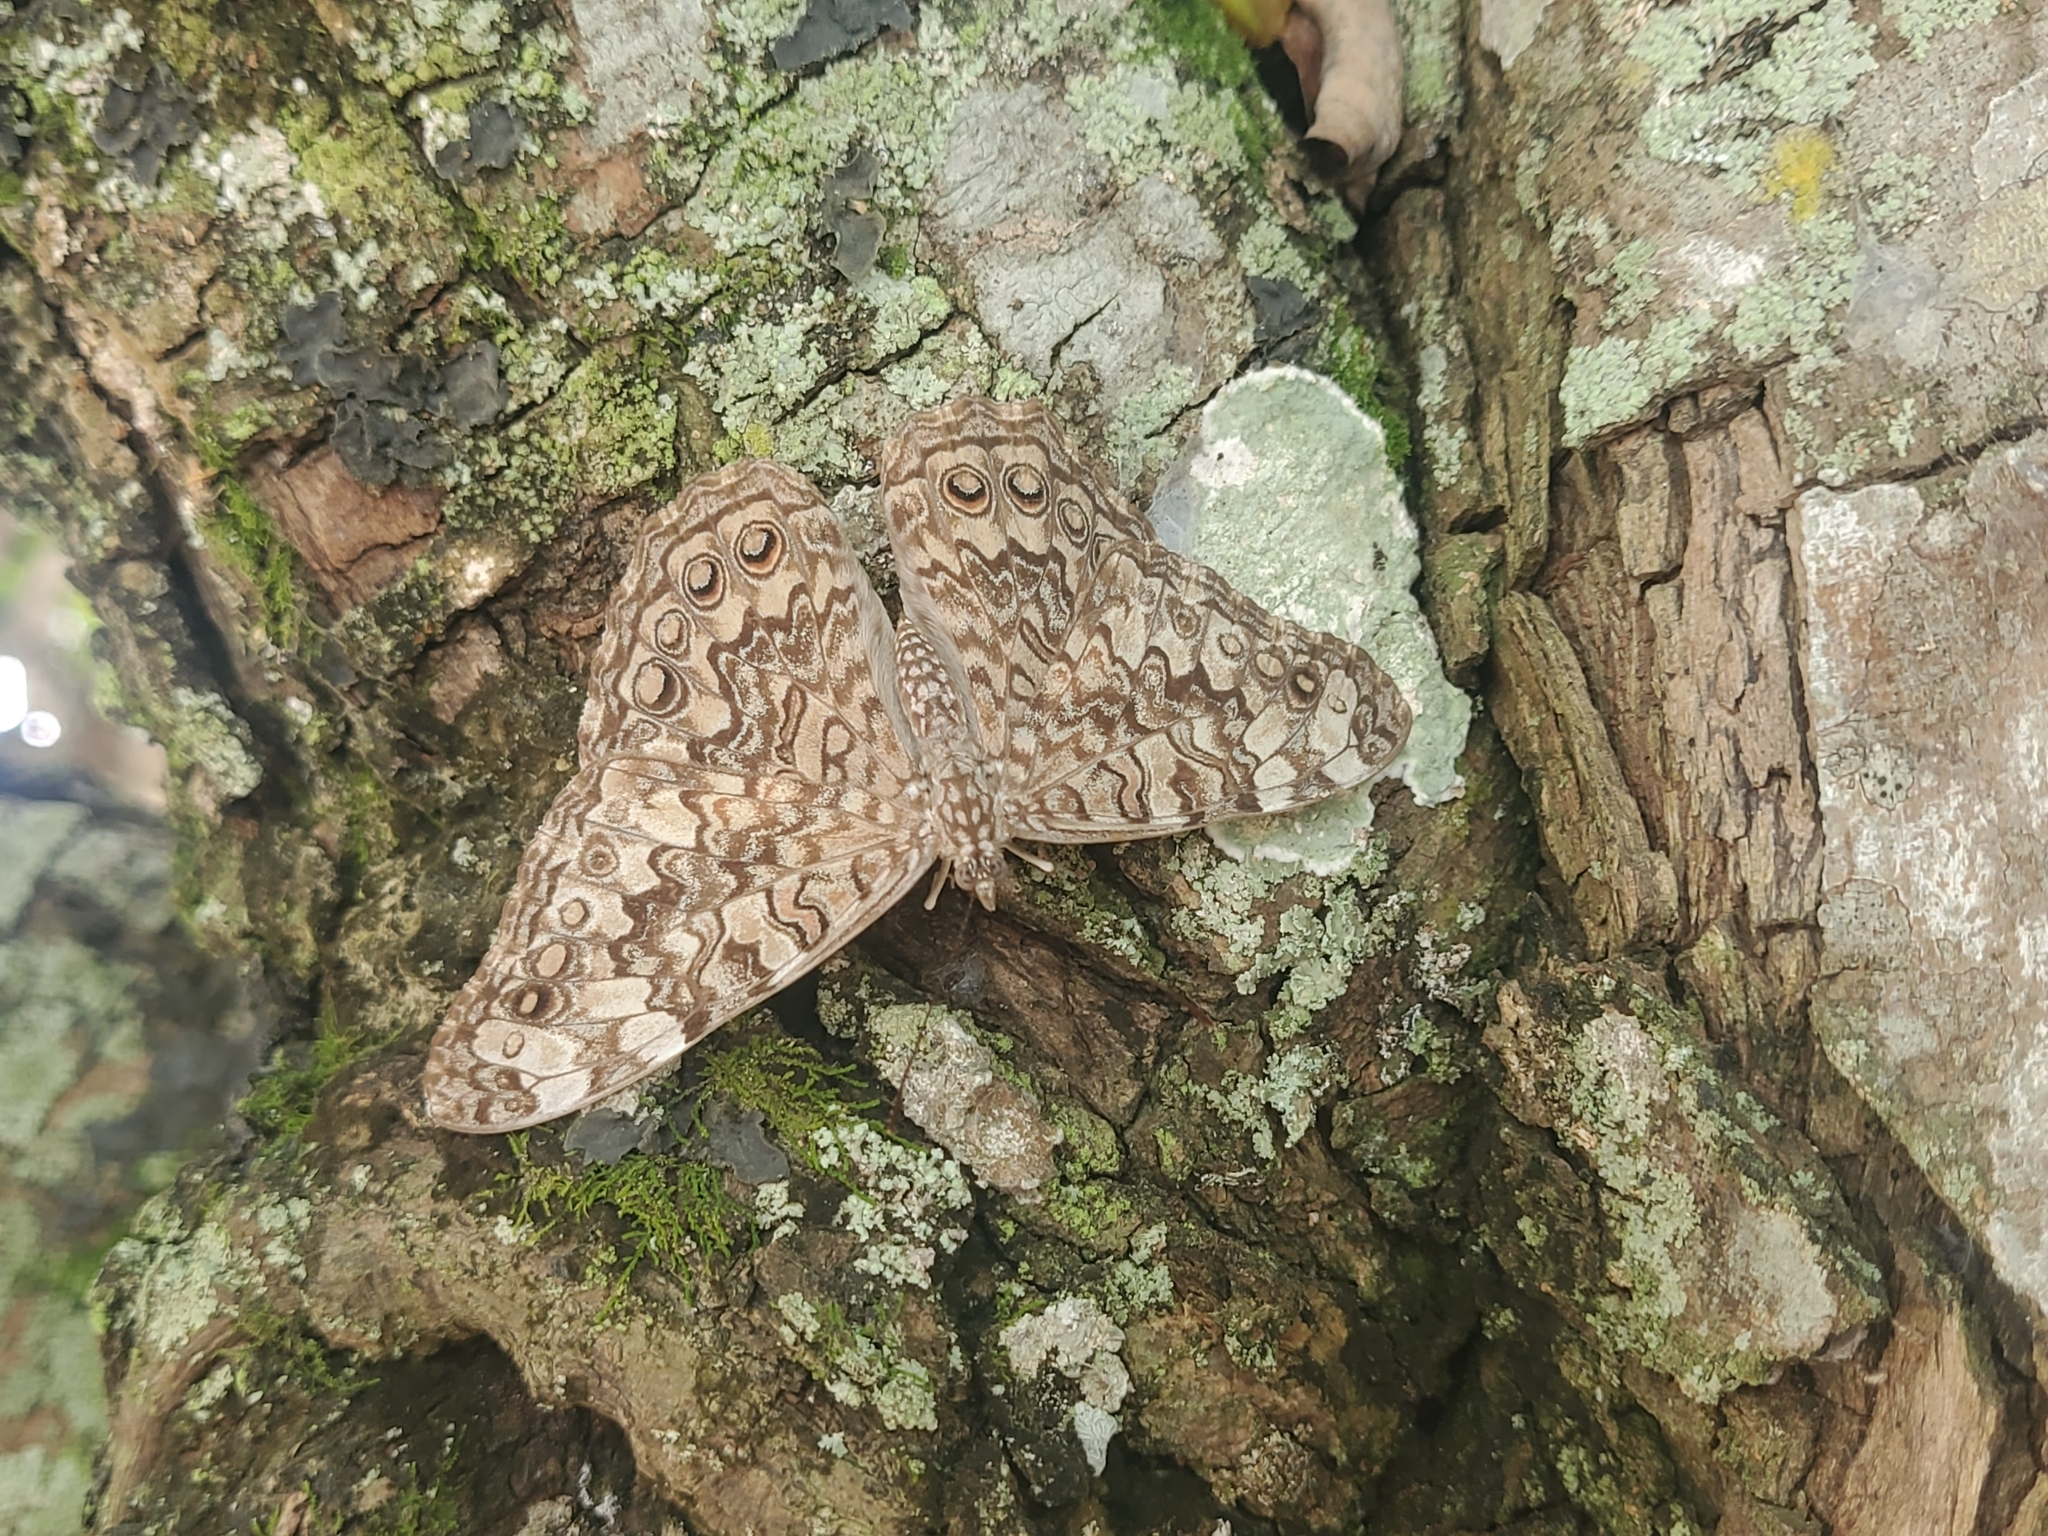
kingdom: Animalia
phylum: Arthropoda
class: Insecta
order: Lepidoptera
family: Nymphalidae
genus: Hamadryas
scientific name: Hamadryas februa
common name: Gray cracker
